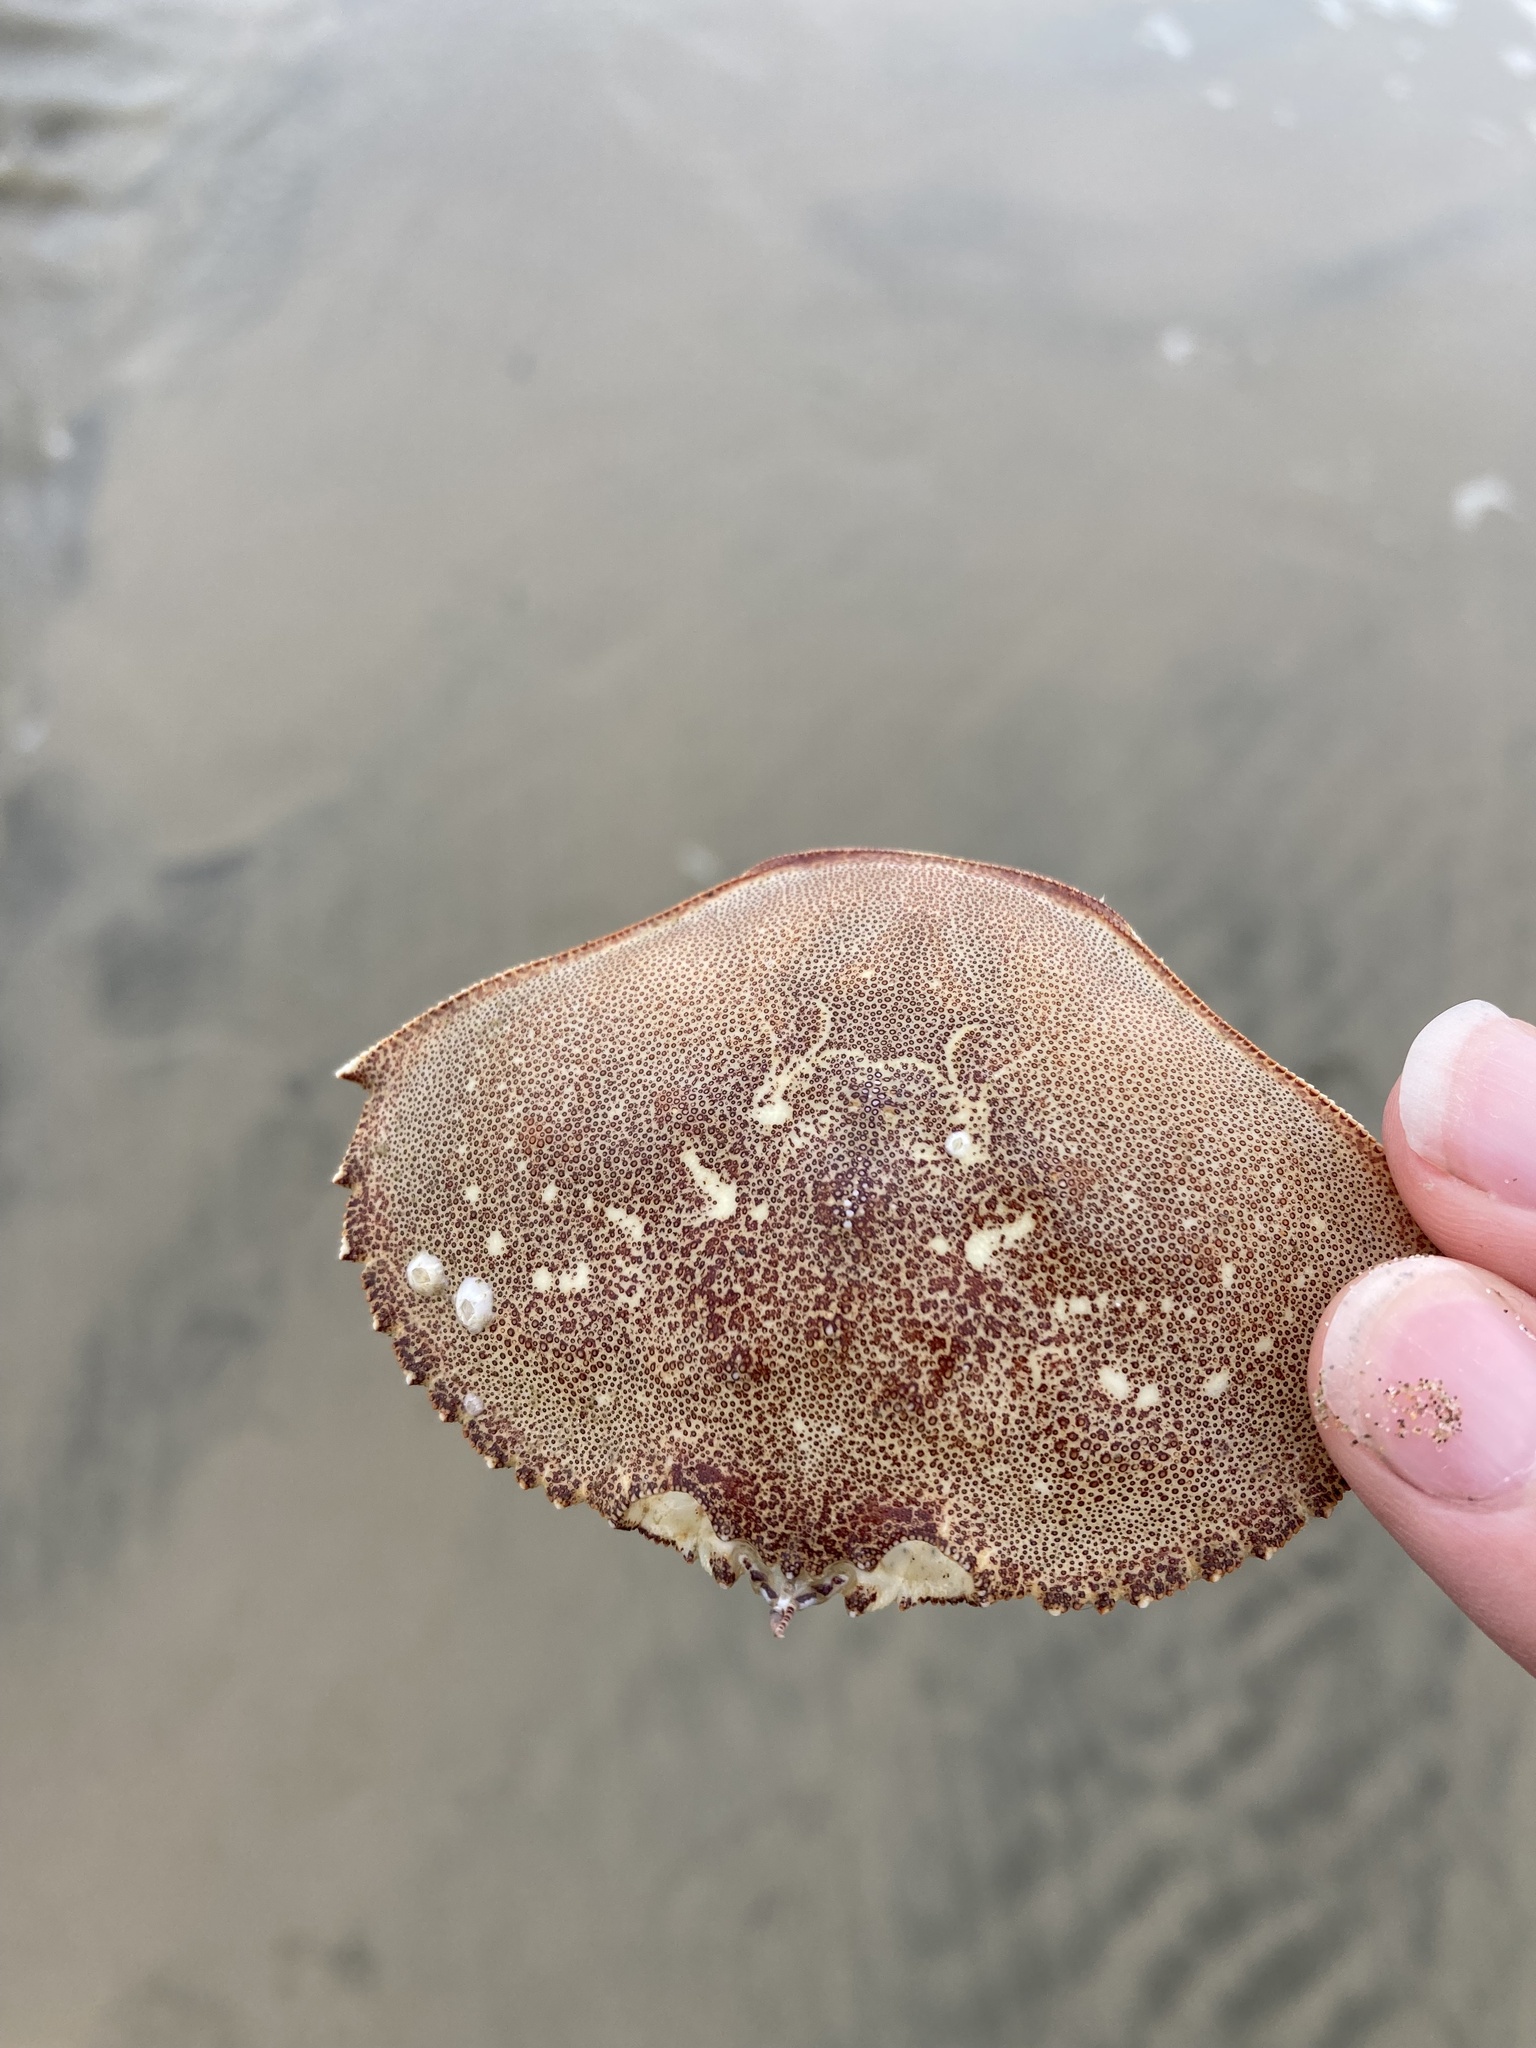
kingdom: Animalia
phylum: Arthropoda
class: Malacostraca
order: Decapoda
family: Cancridae
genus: Metacarcinus
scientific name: Metacarcinus magister
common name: Californian crab
